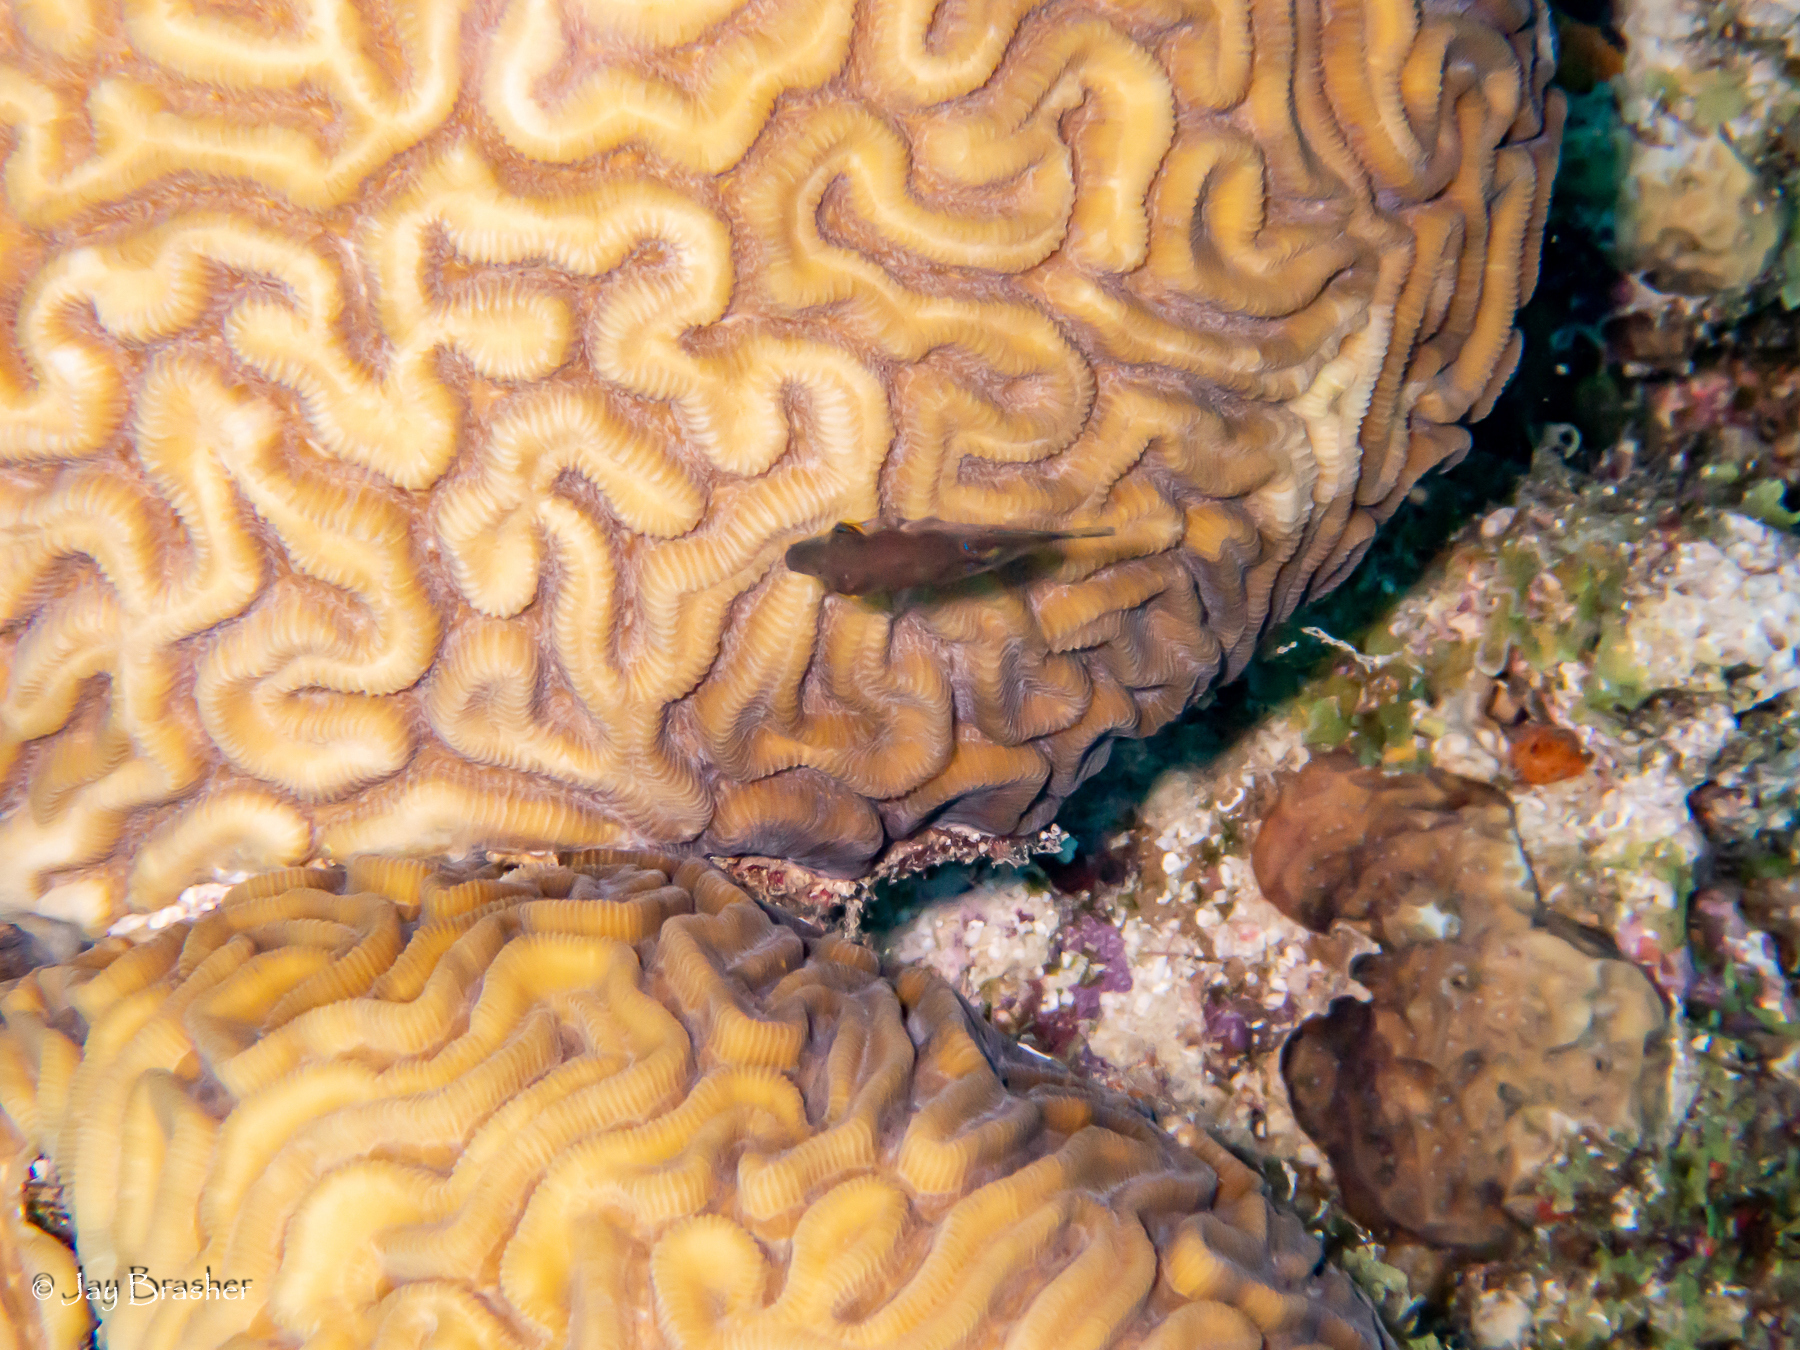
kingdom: Animalia
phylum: Chordata
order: Tetraodontiformes
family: Tetraodontidae
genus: Canthigaster
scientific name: Canthigaster rostrata
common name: Caribbean sharpnose-puffer
